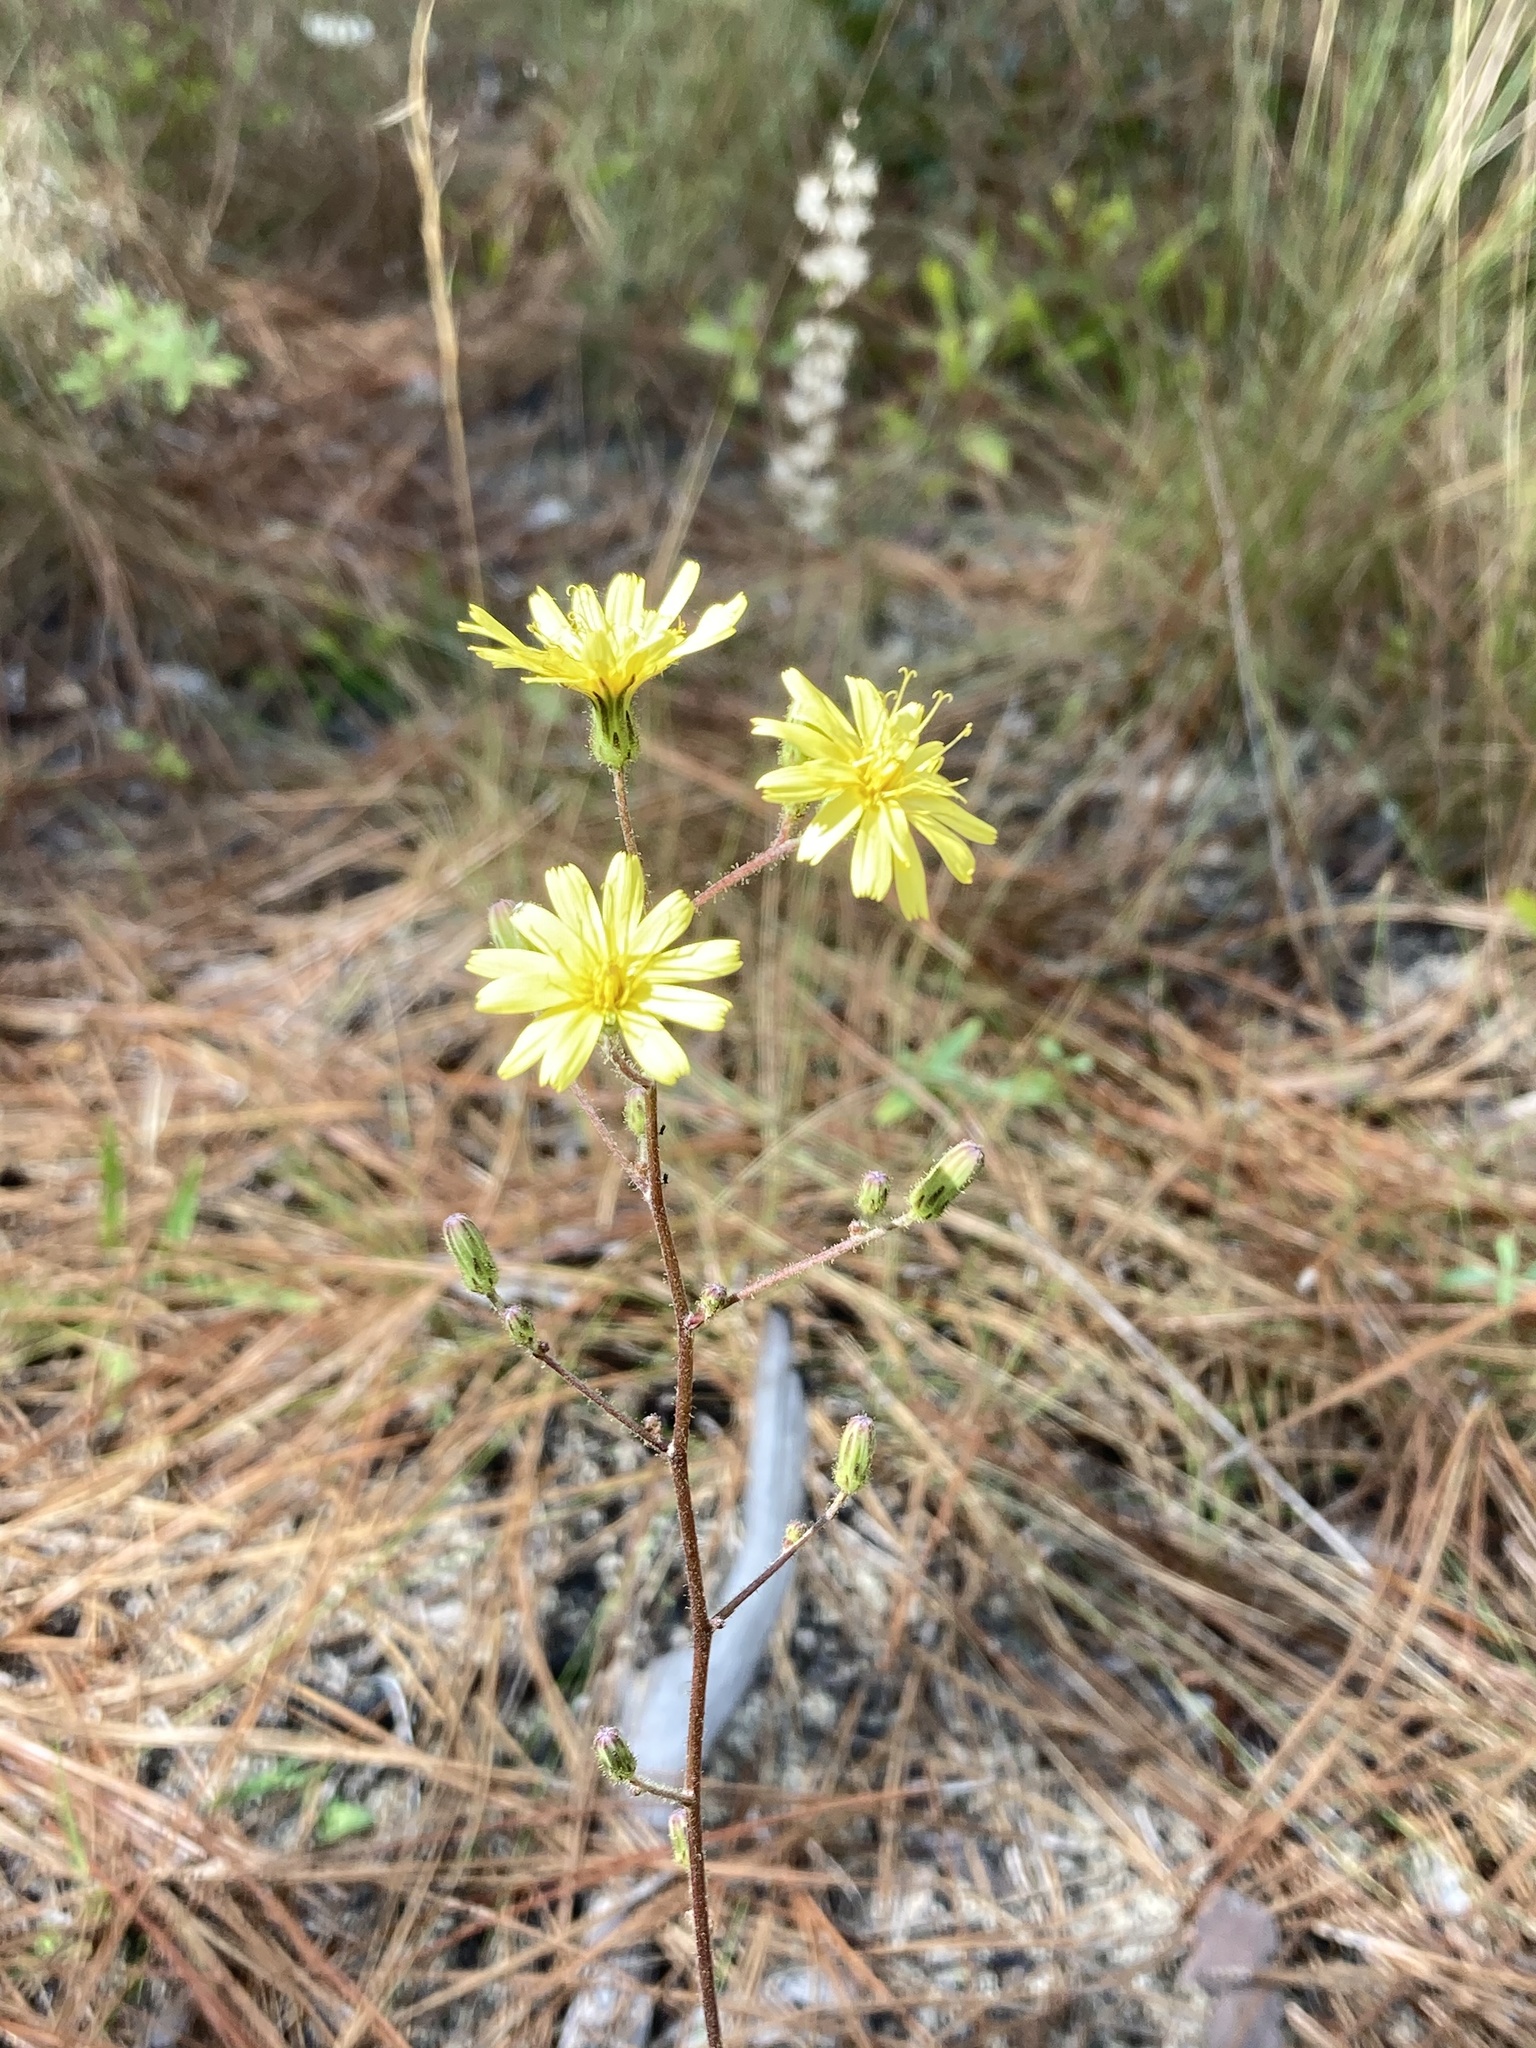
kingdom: Plantae
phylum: Tracheophyta
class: Magnoliopsida
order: Asterales
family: Asteraceae
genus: Hieracium
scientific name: Hieracium gronovii
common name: Beaked hawkweed
